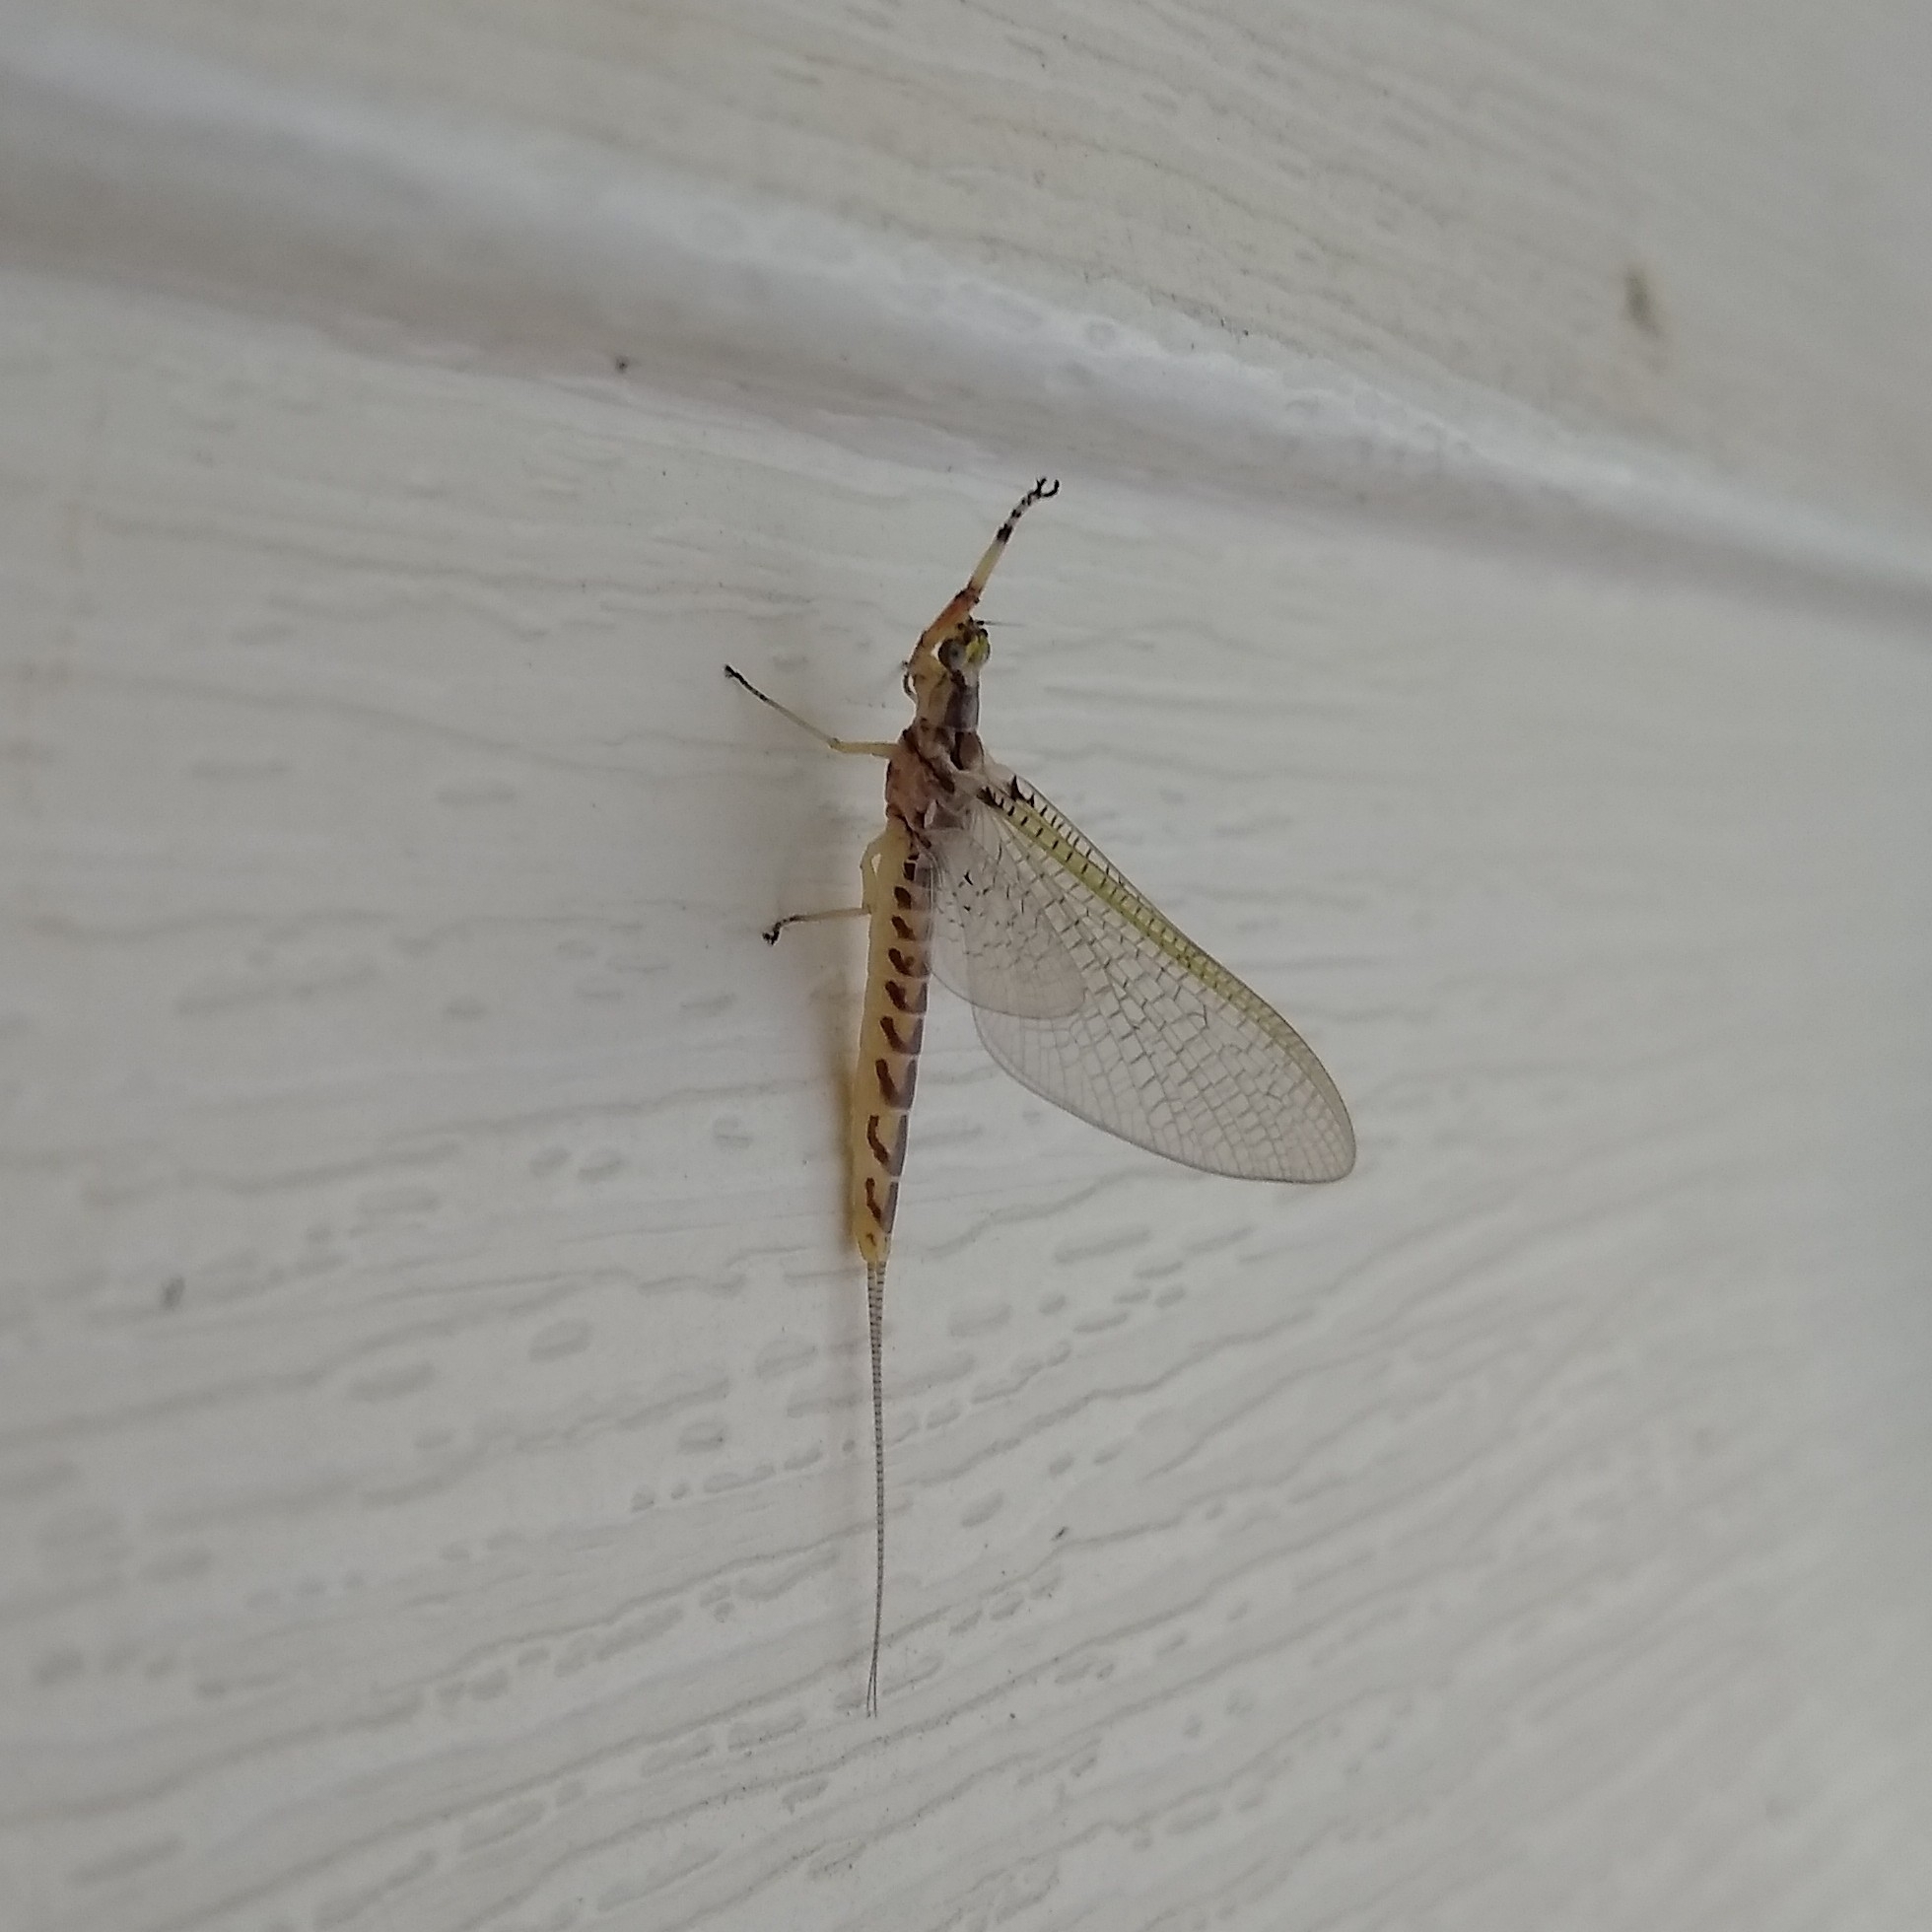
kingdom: Animalia
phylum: Arthropoda
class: Insecta
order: Ephemeroptera
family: Ephemeridae
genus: Hexagenia
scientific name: Hexagenia limbata
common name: Giant mayfly
